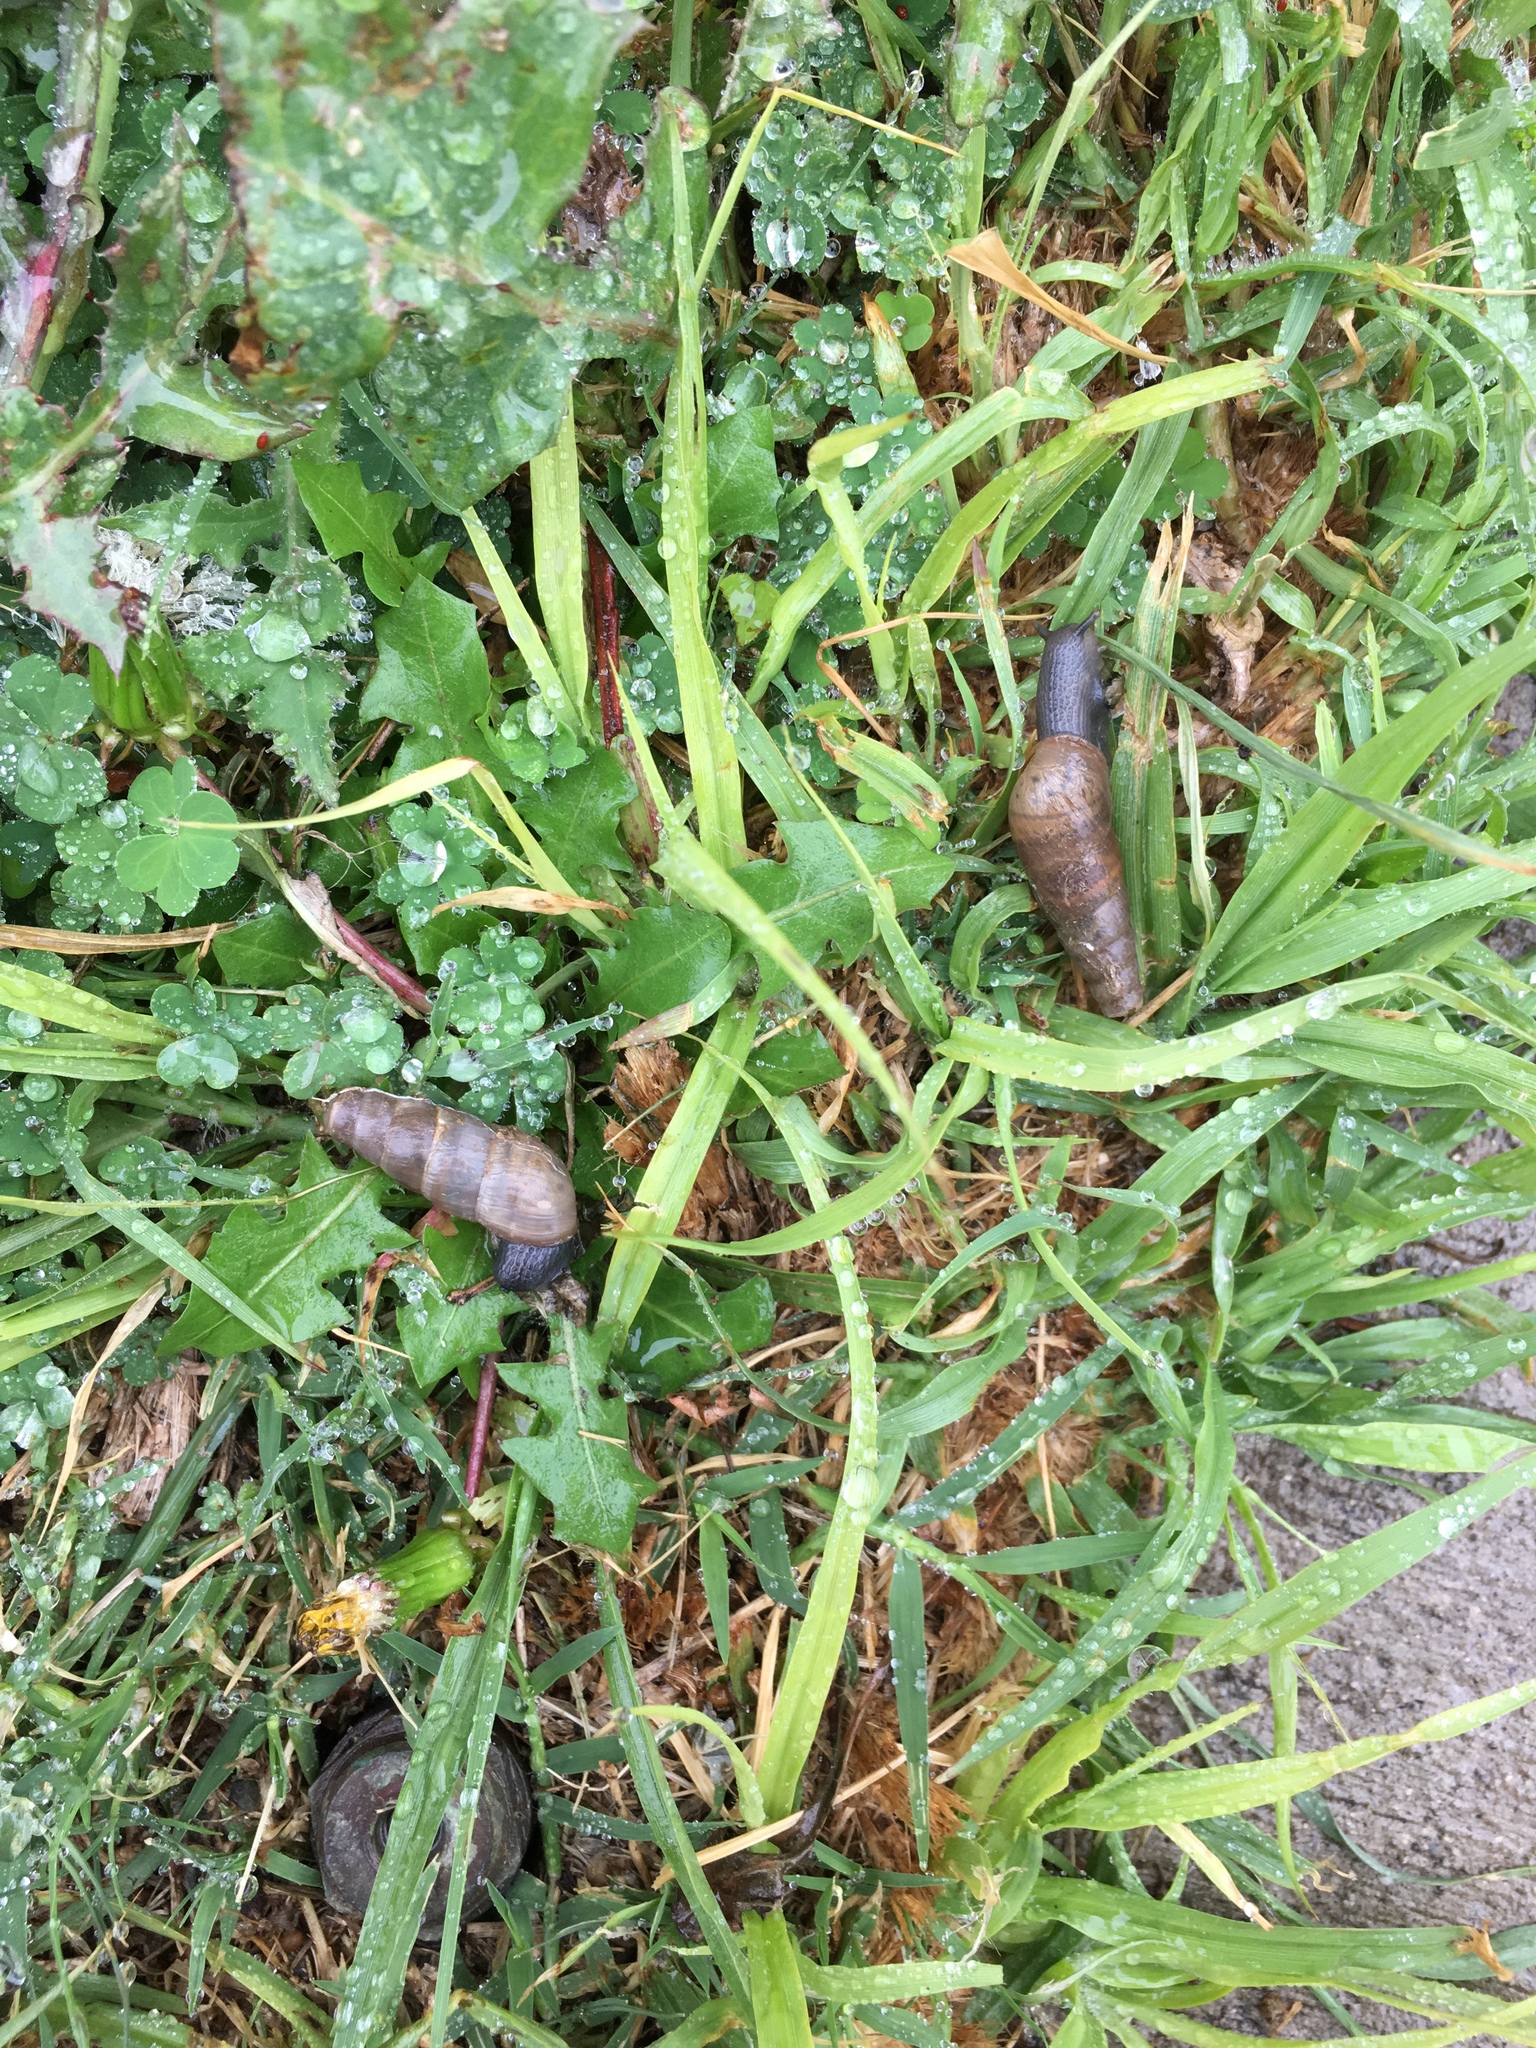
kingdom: Animalia
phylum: Mollusca
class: Gastropoda
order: Stylommatophora
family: Achatinidae
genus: Rumina
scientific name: Rumina decollata
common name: Decollate snail
